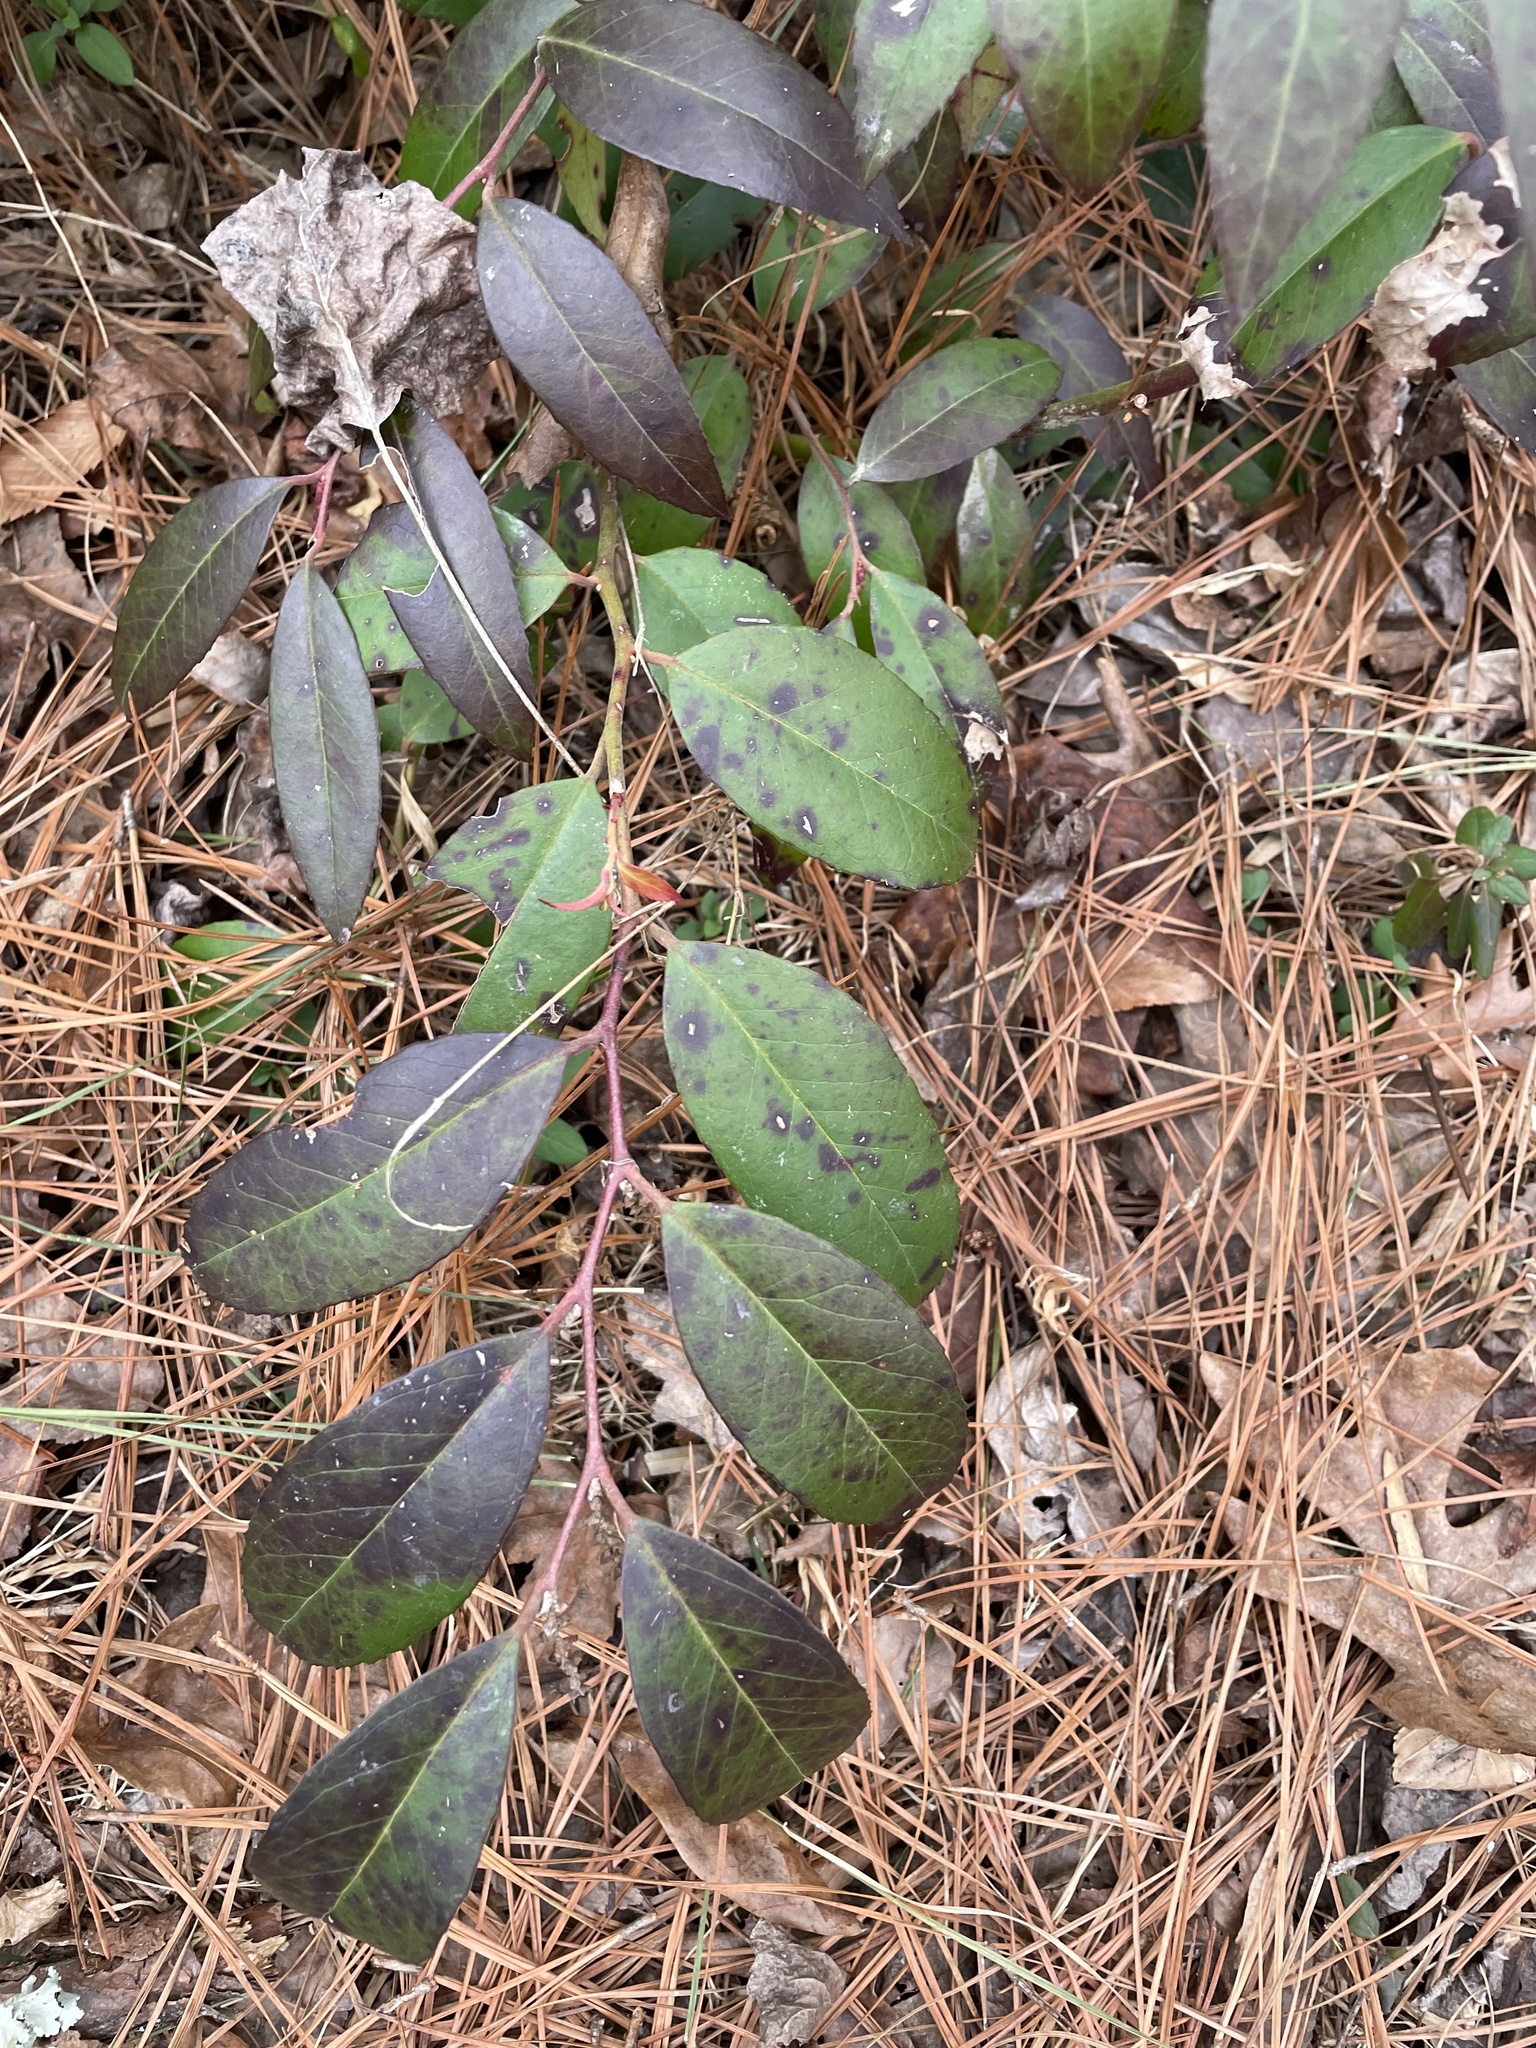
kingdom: Plantae
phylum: Tracheophyta
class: Magnoliopsida
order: Ericales
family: Ericaceae
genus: Leucothoe
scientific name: Leucothoe axillaris
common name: Leucothoe
